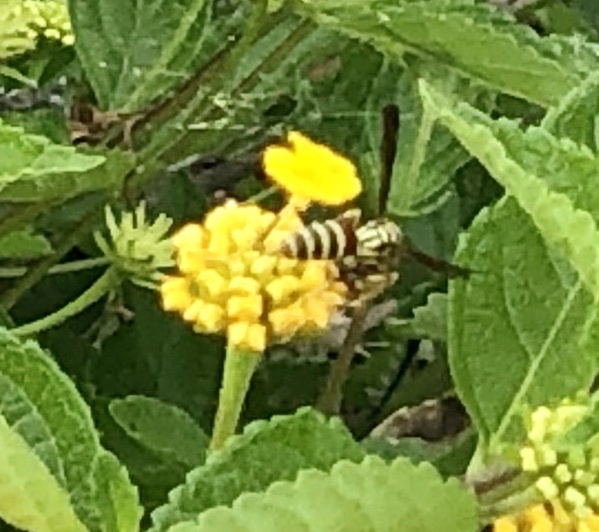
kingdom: Animalia
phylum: Arthropoda
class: Insecta
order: Hymenoptera
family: Eumenidae
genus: Polistes
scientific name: Polistes exclamans
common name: Paper wasp
